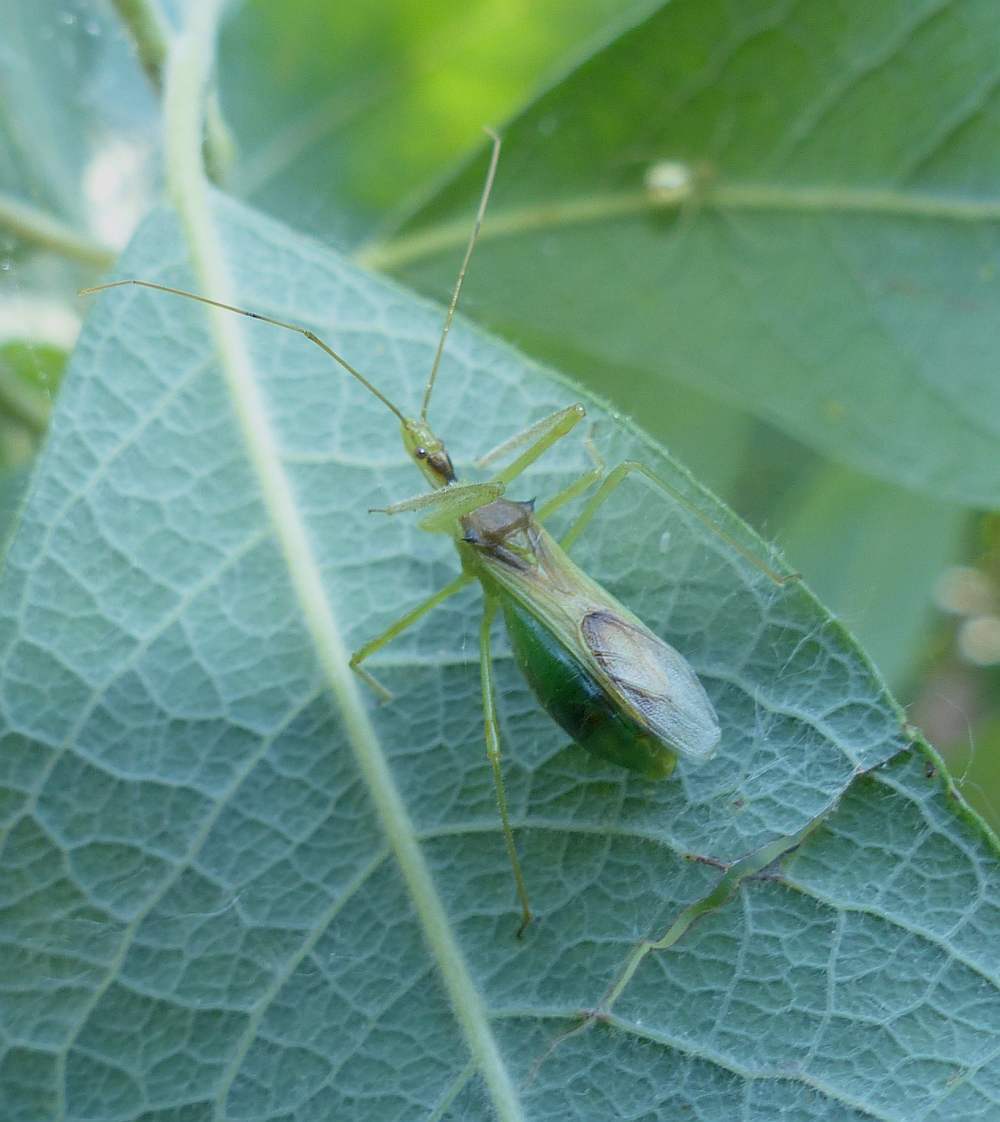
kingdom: Animalia
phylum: Arthropoda
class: Insecta
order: Hemiptera
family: Reduviidae
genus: Zelus
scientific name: Zelus luridus
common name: Pale green assassin bug
